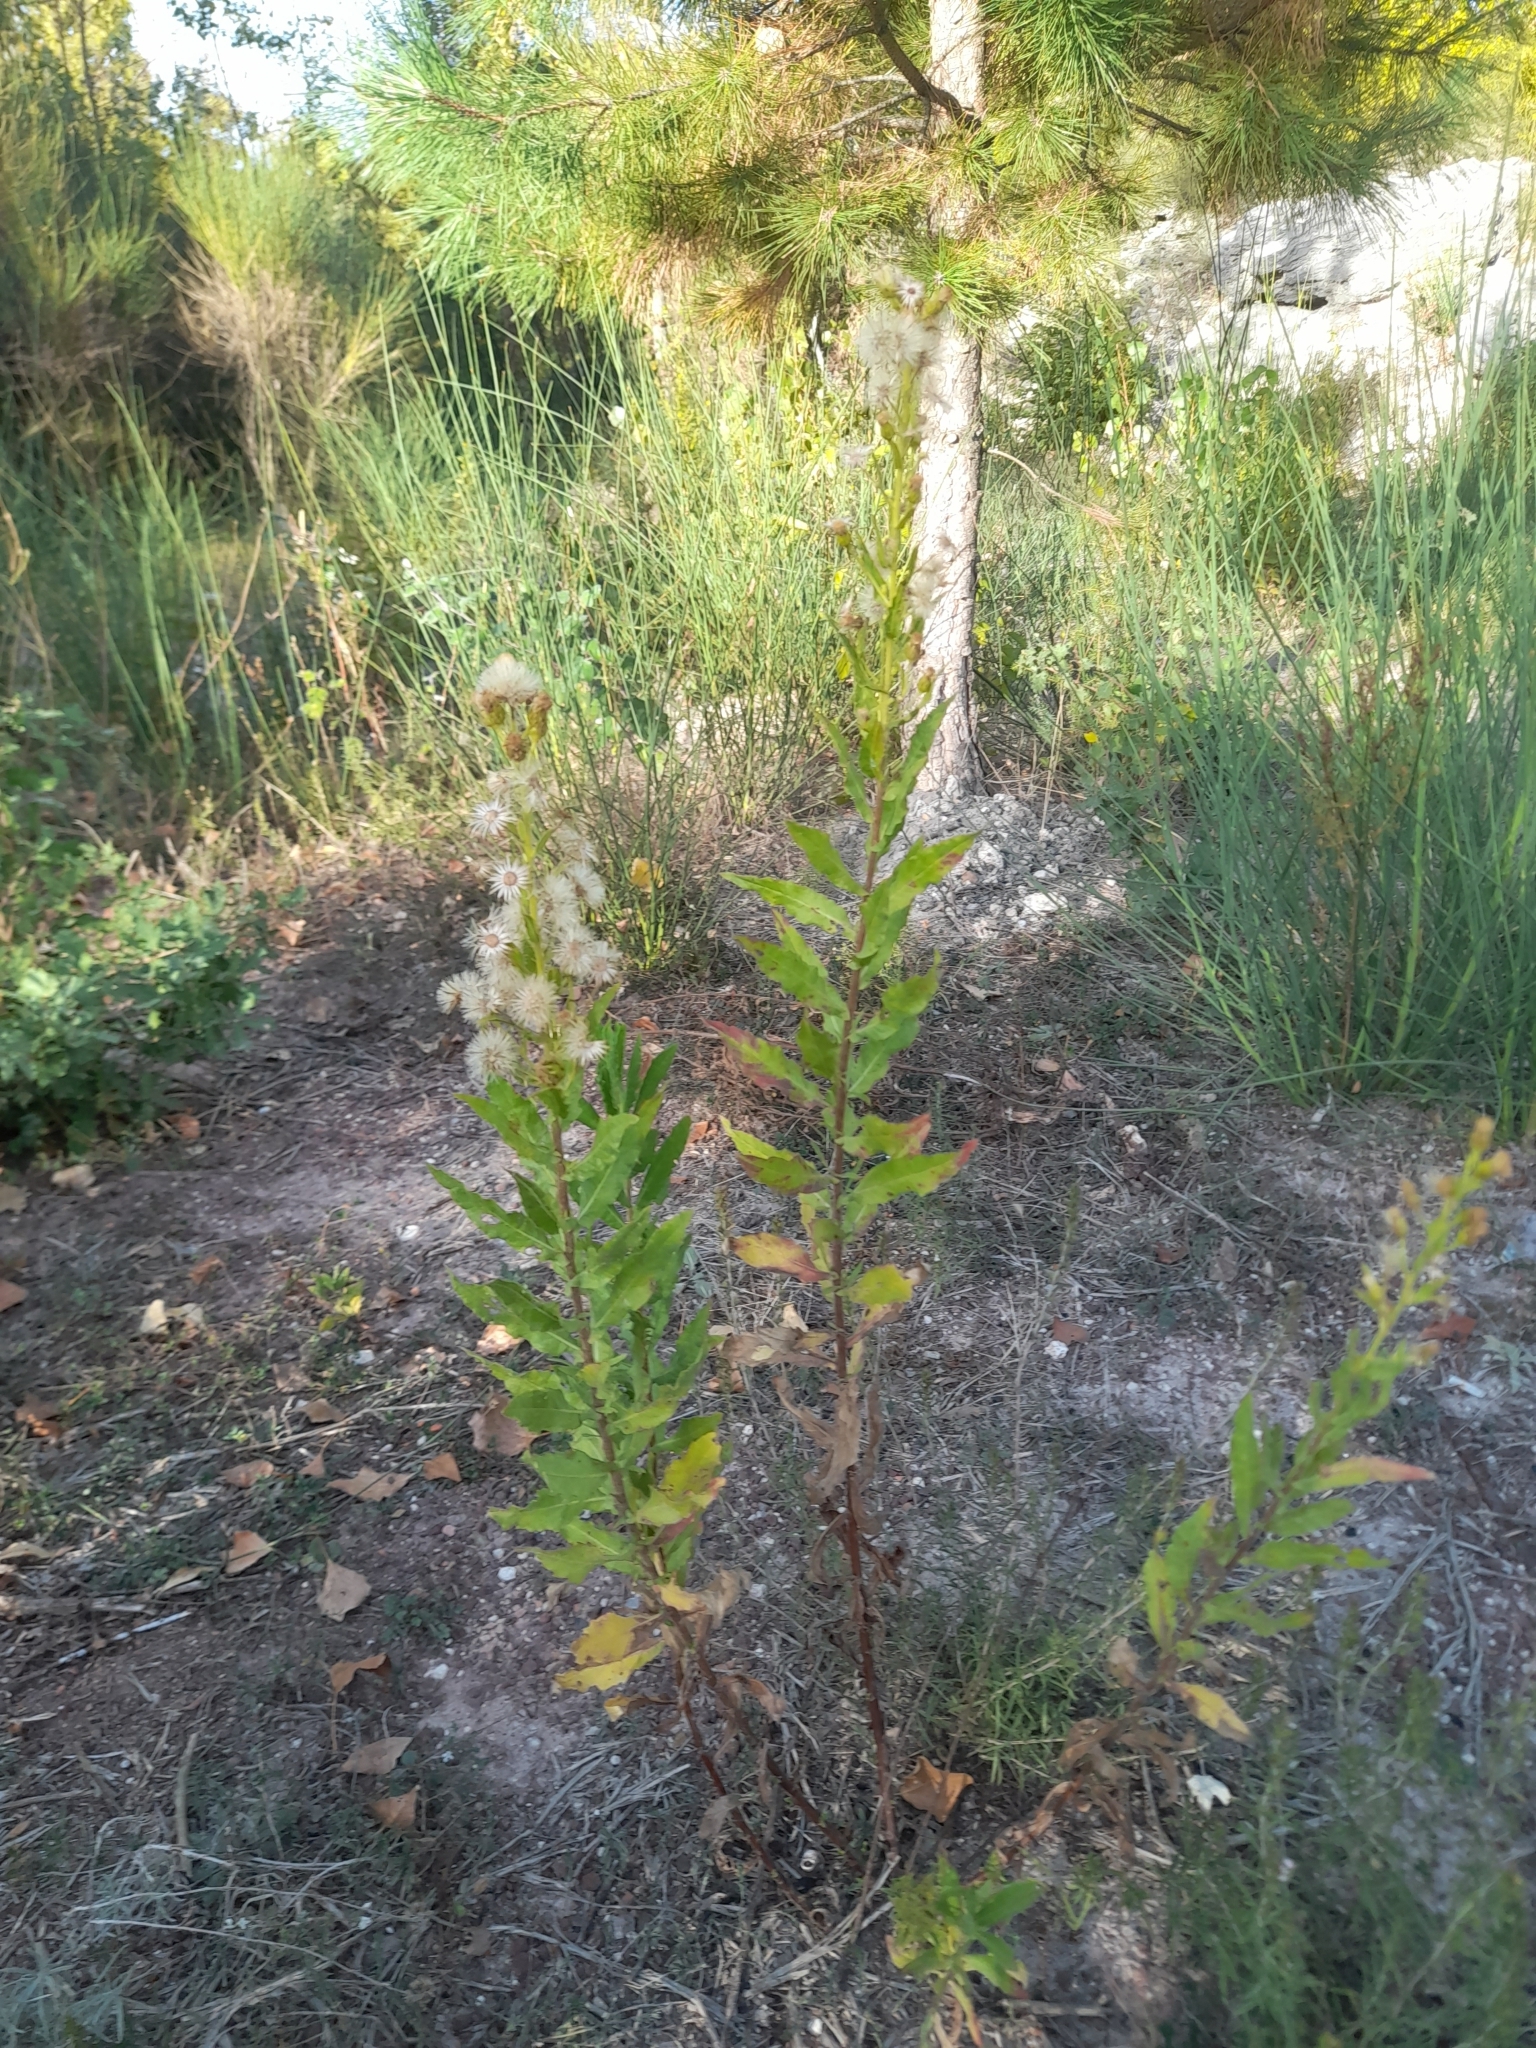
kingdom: Plantae
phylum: Tracheophyta
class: Magnoliopsida
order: Asterales
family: Asteraceae
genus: Dittrichia
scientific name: Dittrichia viscosa
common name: Woody fleabane
